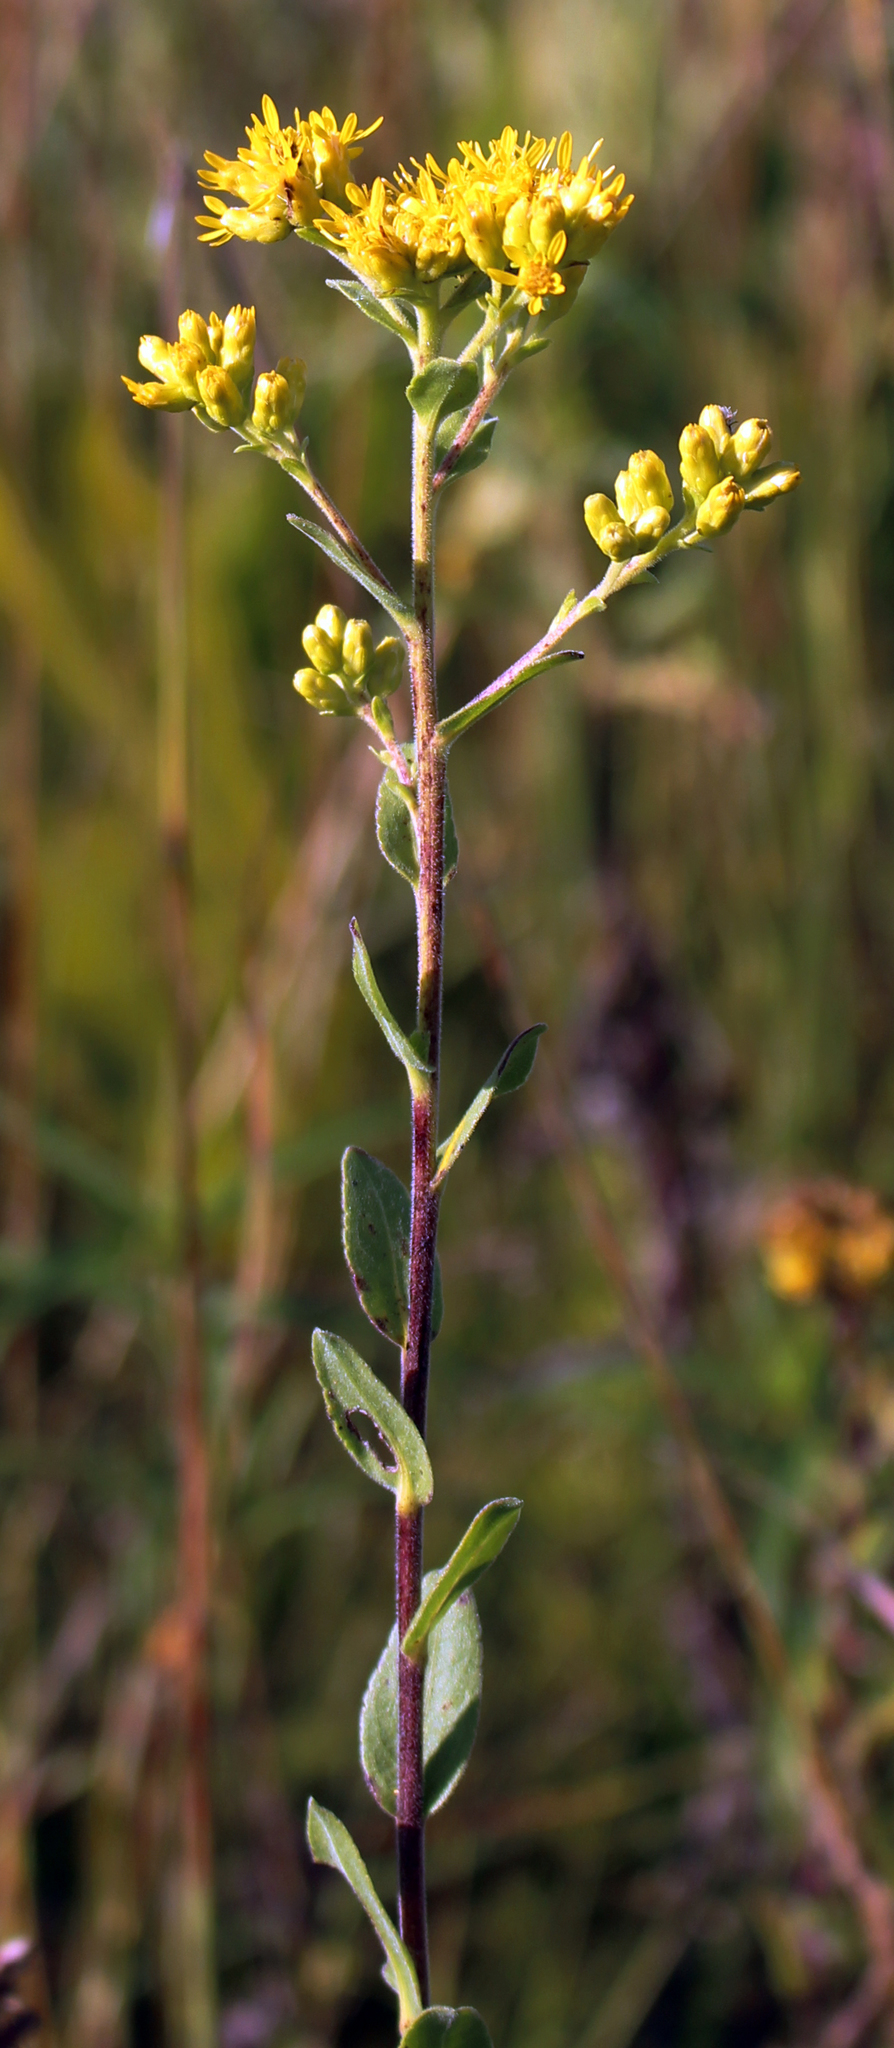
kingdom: Plantae
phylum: Tracheophyta
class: Magnoliopsida
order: Asterales
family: Asteraceae
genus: Solidago
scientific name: Solidago rigida
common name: Rigid goldenrod
